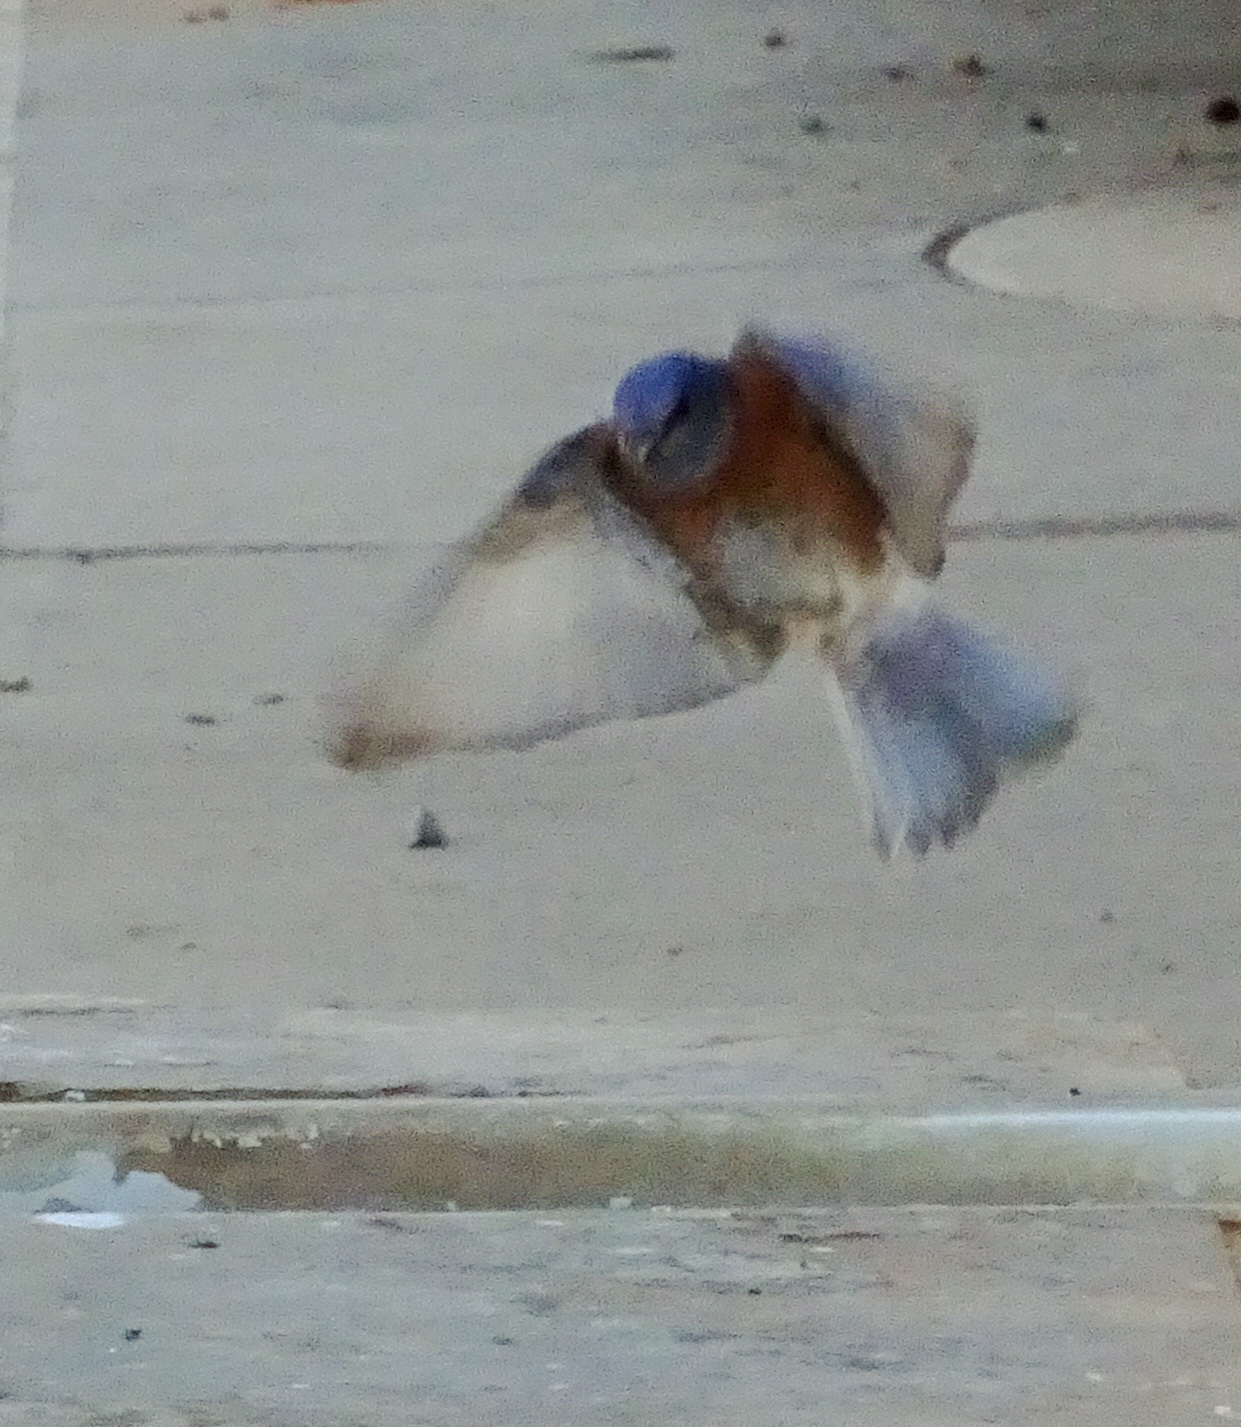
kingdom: Animalia
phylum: Chordata
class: Aves
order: Passeriformes
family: Turdidae
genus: Sialia
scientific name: Sialia mexicana
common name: Western bluebird
